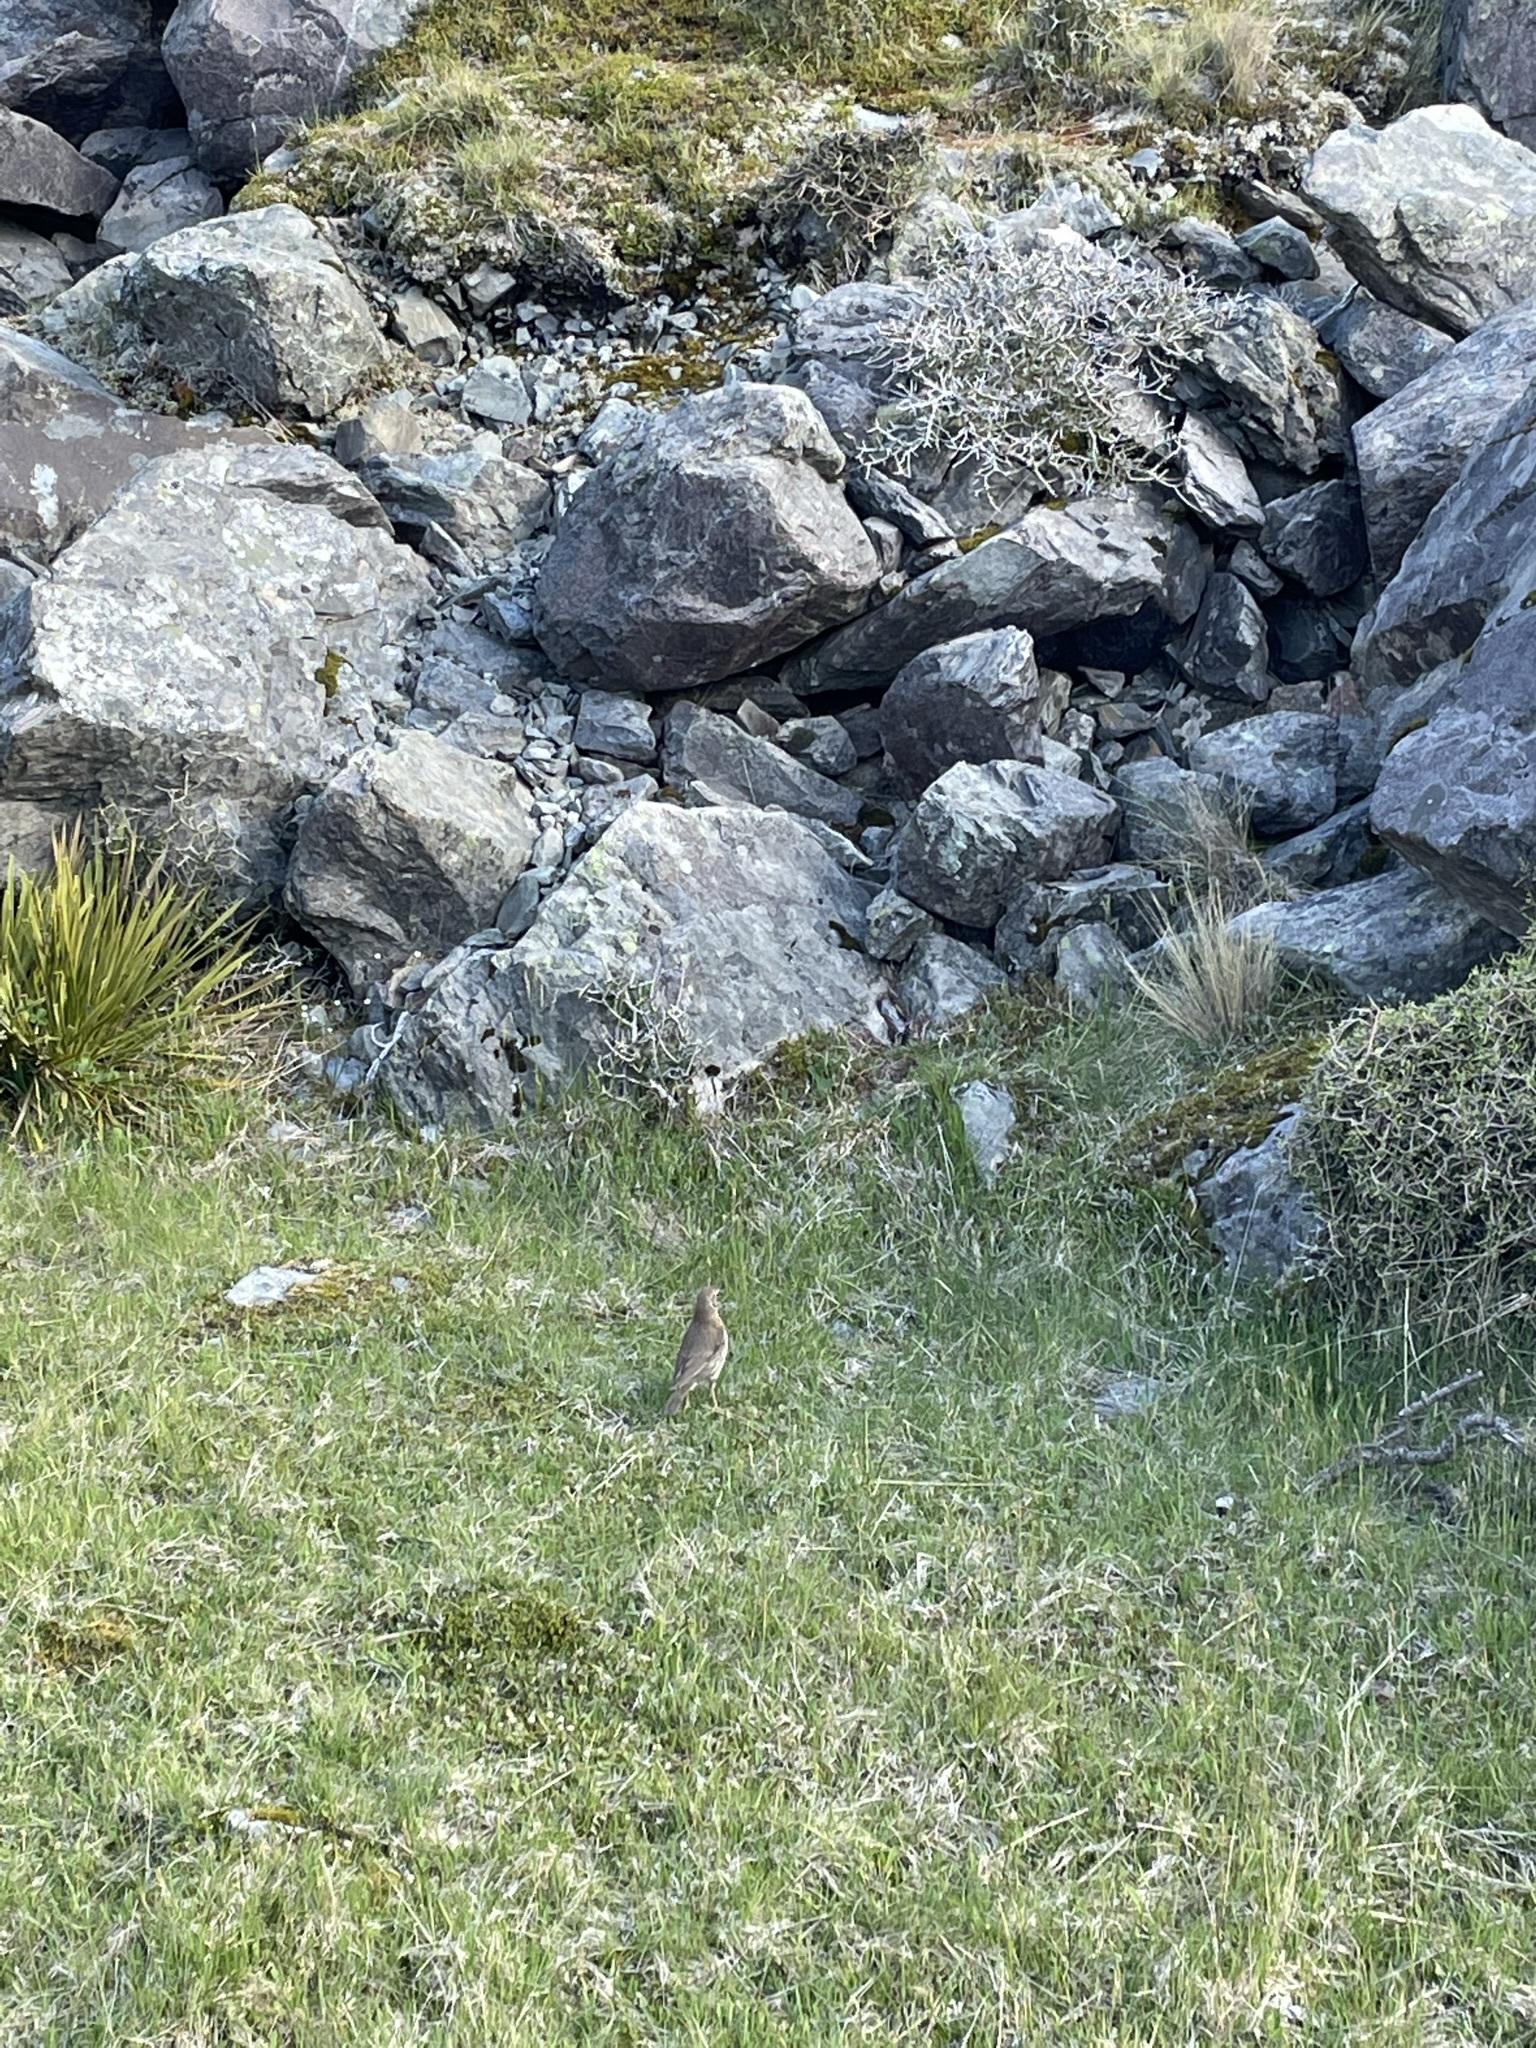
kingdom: Animalia
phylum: Chordata
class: Aves
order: Passeriformes
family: Motacillidae
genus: Anthus
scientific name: Anthus novaeseelandiae
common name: New zealand pipit
